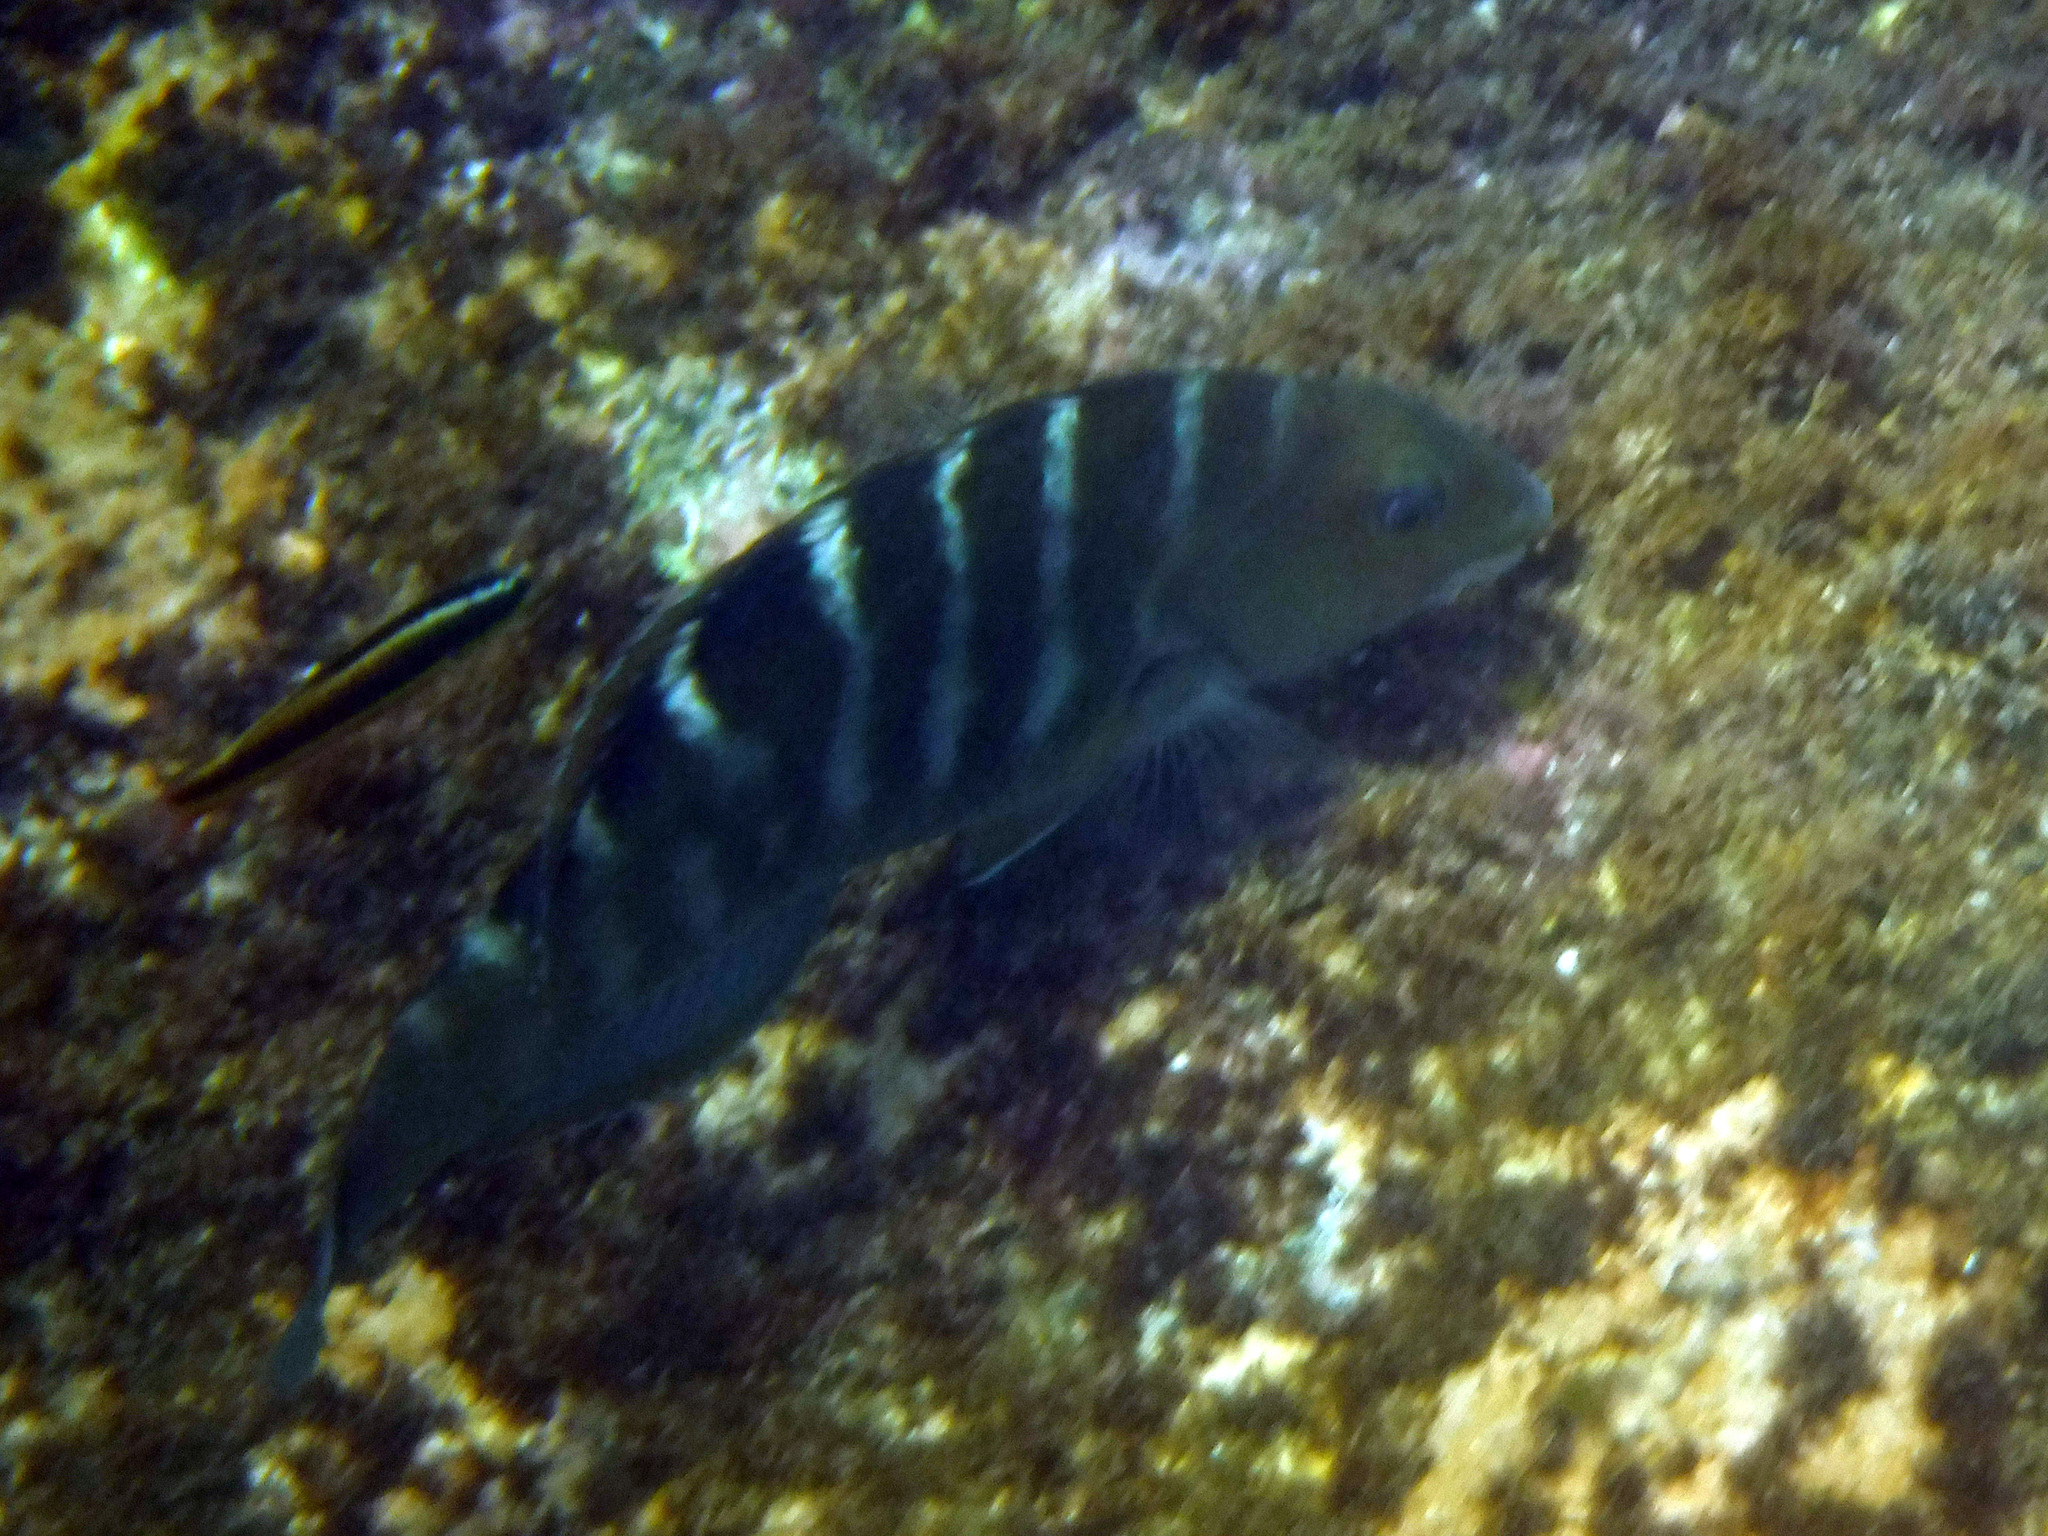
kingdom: Animalia
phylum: Chordata
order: Perciformes
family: Labridae
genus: Halichoeres
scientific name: Halichoeres notospilus
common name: Banded wrasse
